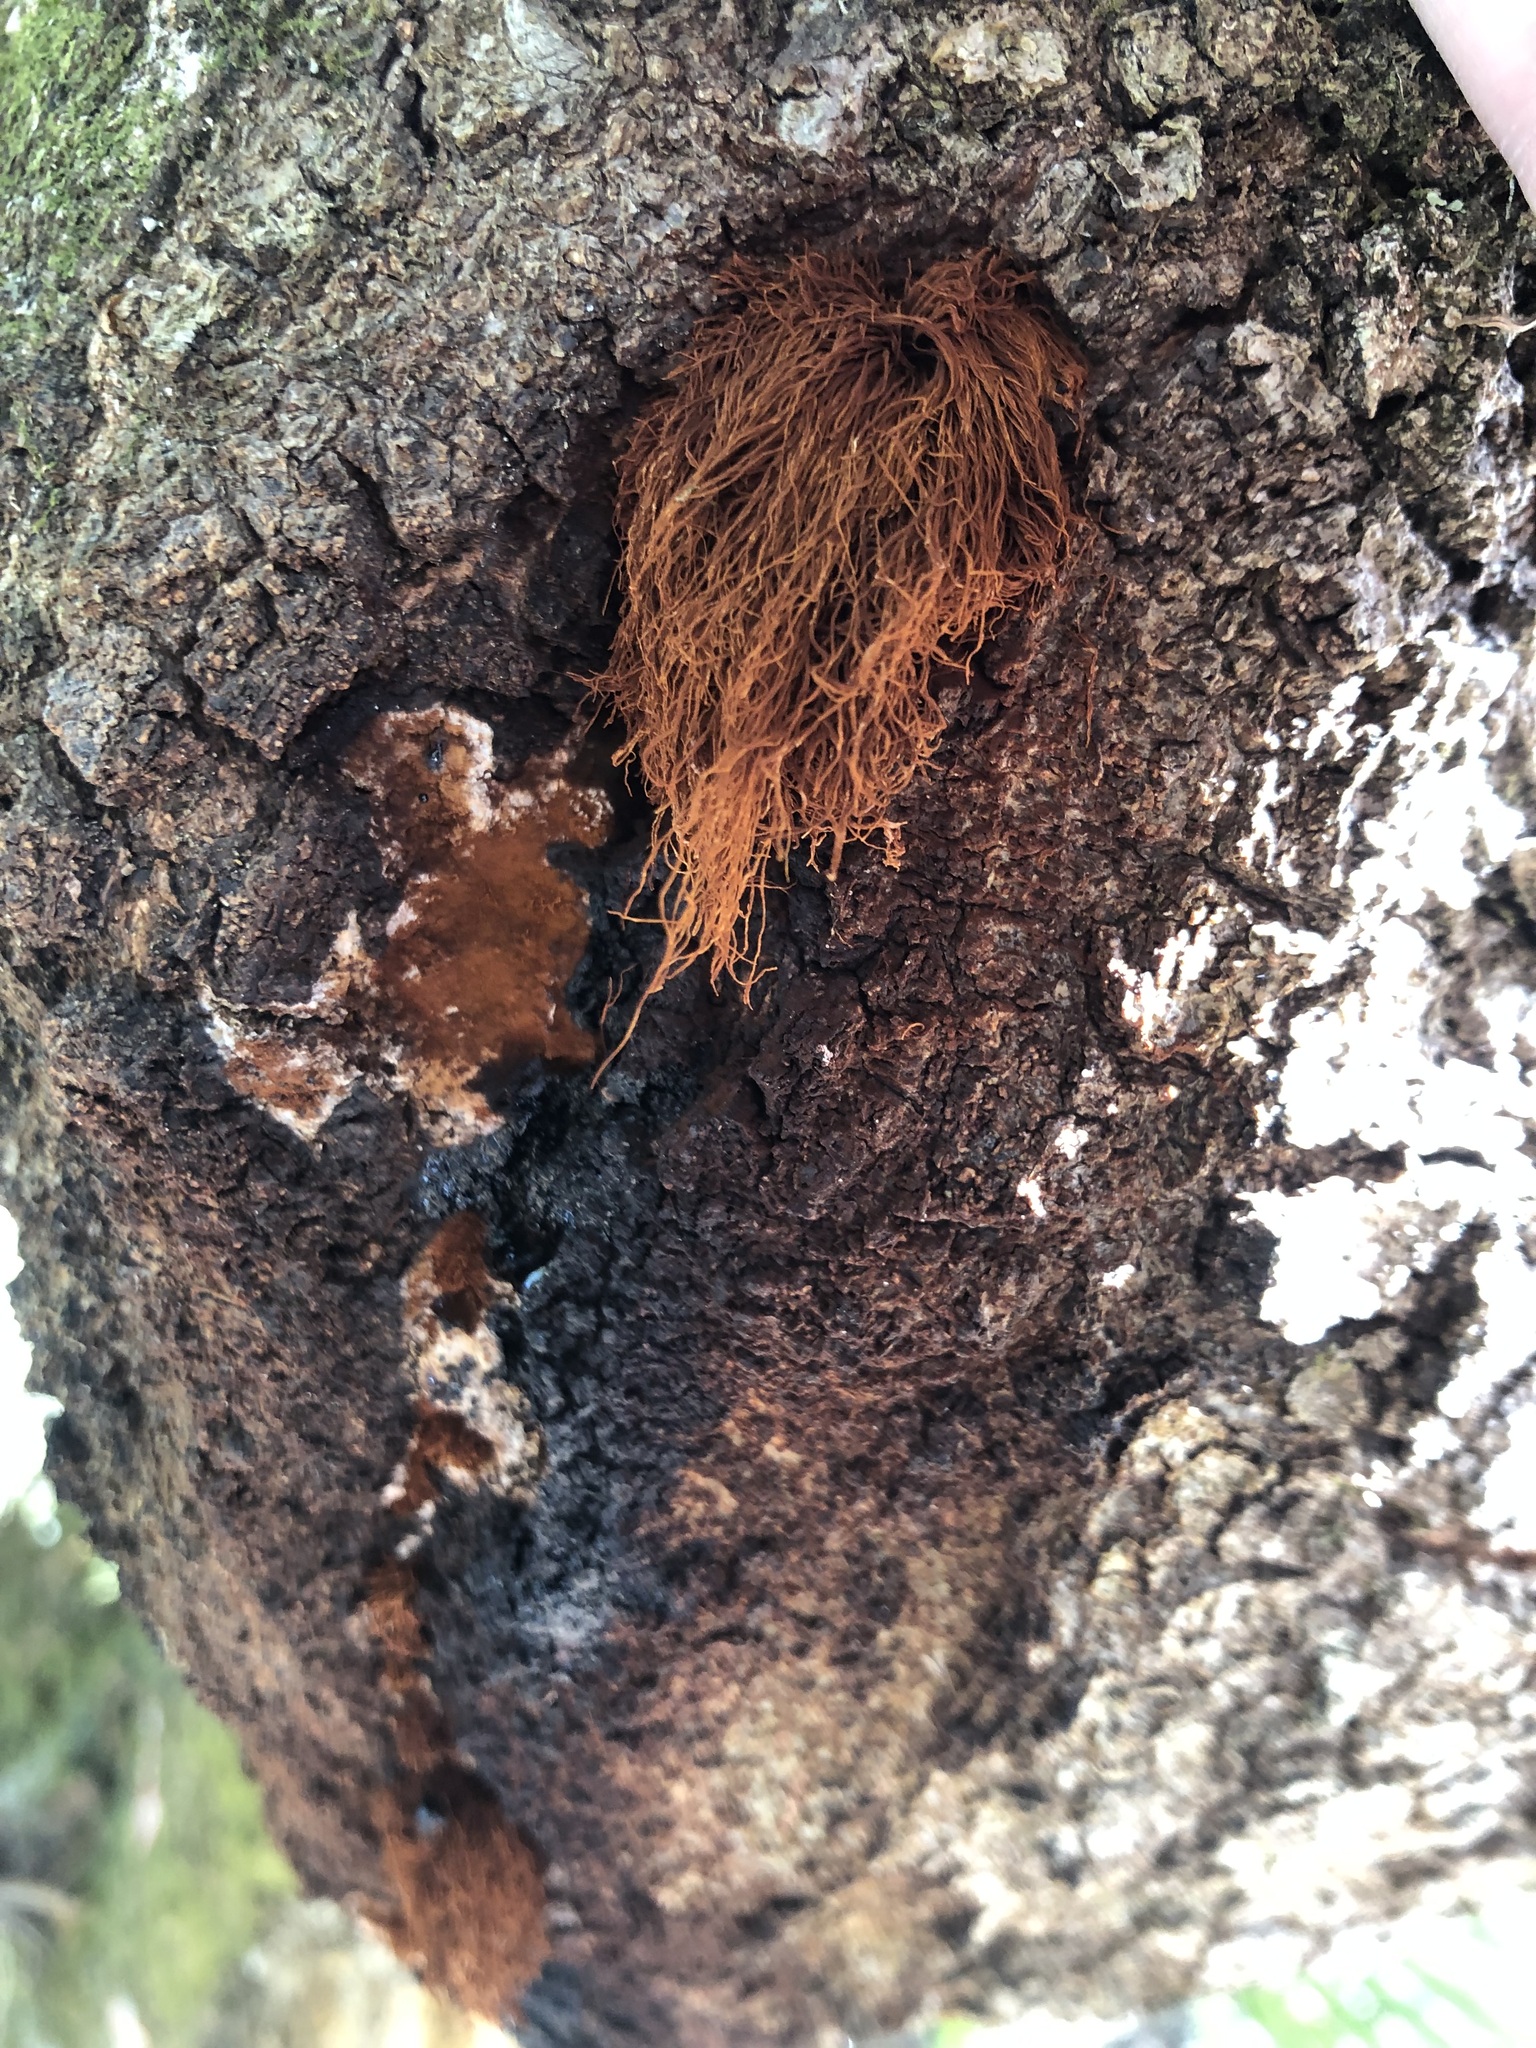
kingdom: Fungi
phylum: Basidiomycota
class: Agaricomycetes
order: Hymenochaetales
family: Hymenochaetaceae
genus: Inonotus
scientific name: Inonotus rickii
